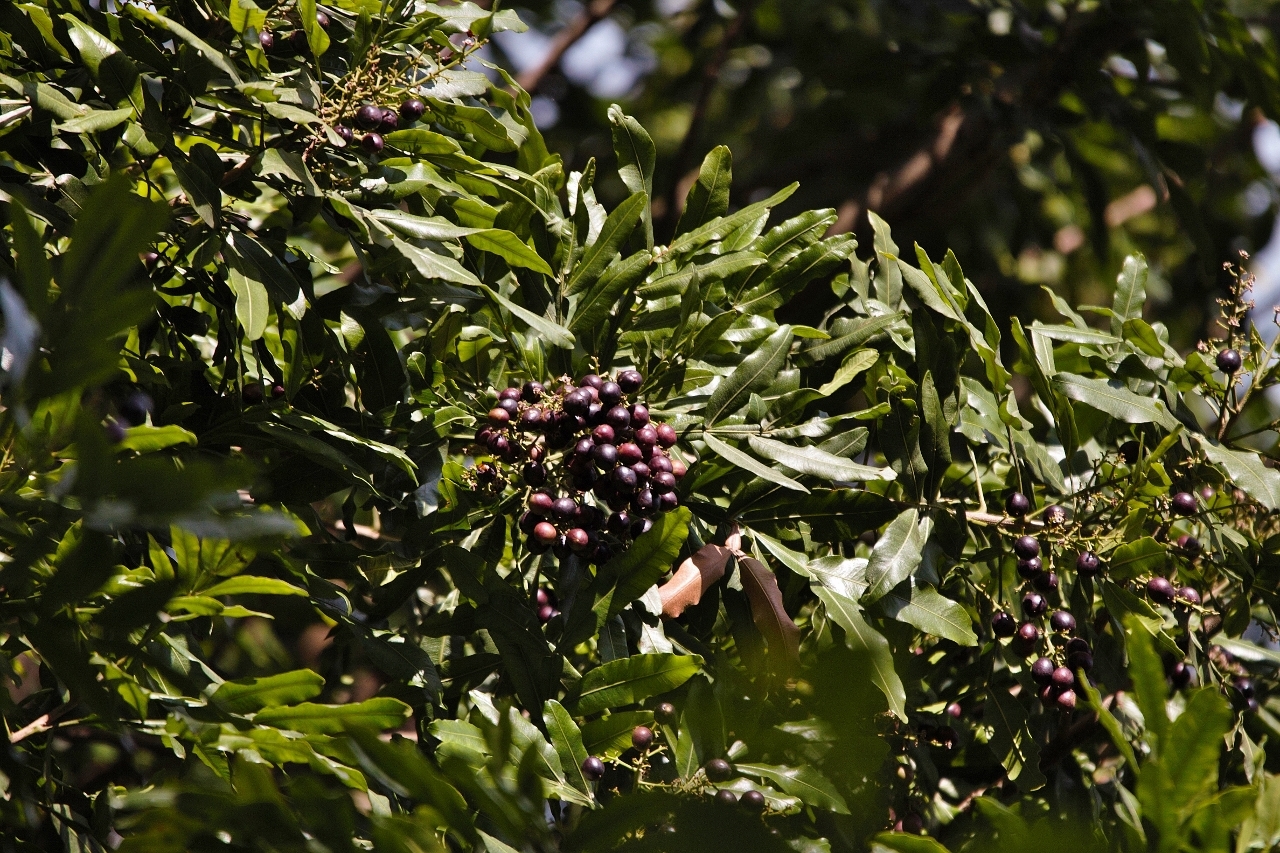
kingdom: Plantae
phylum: Tracheophyta
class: Magnoliopsida
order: Sapindales
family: Sapindaceae
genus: Filicium
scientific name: Filicium decipiens
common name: Ferntree
